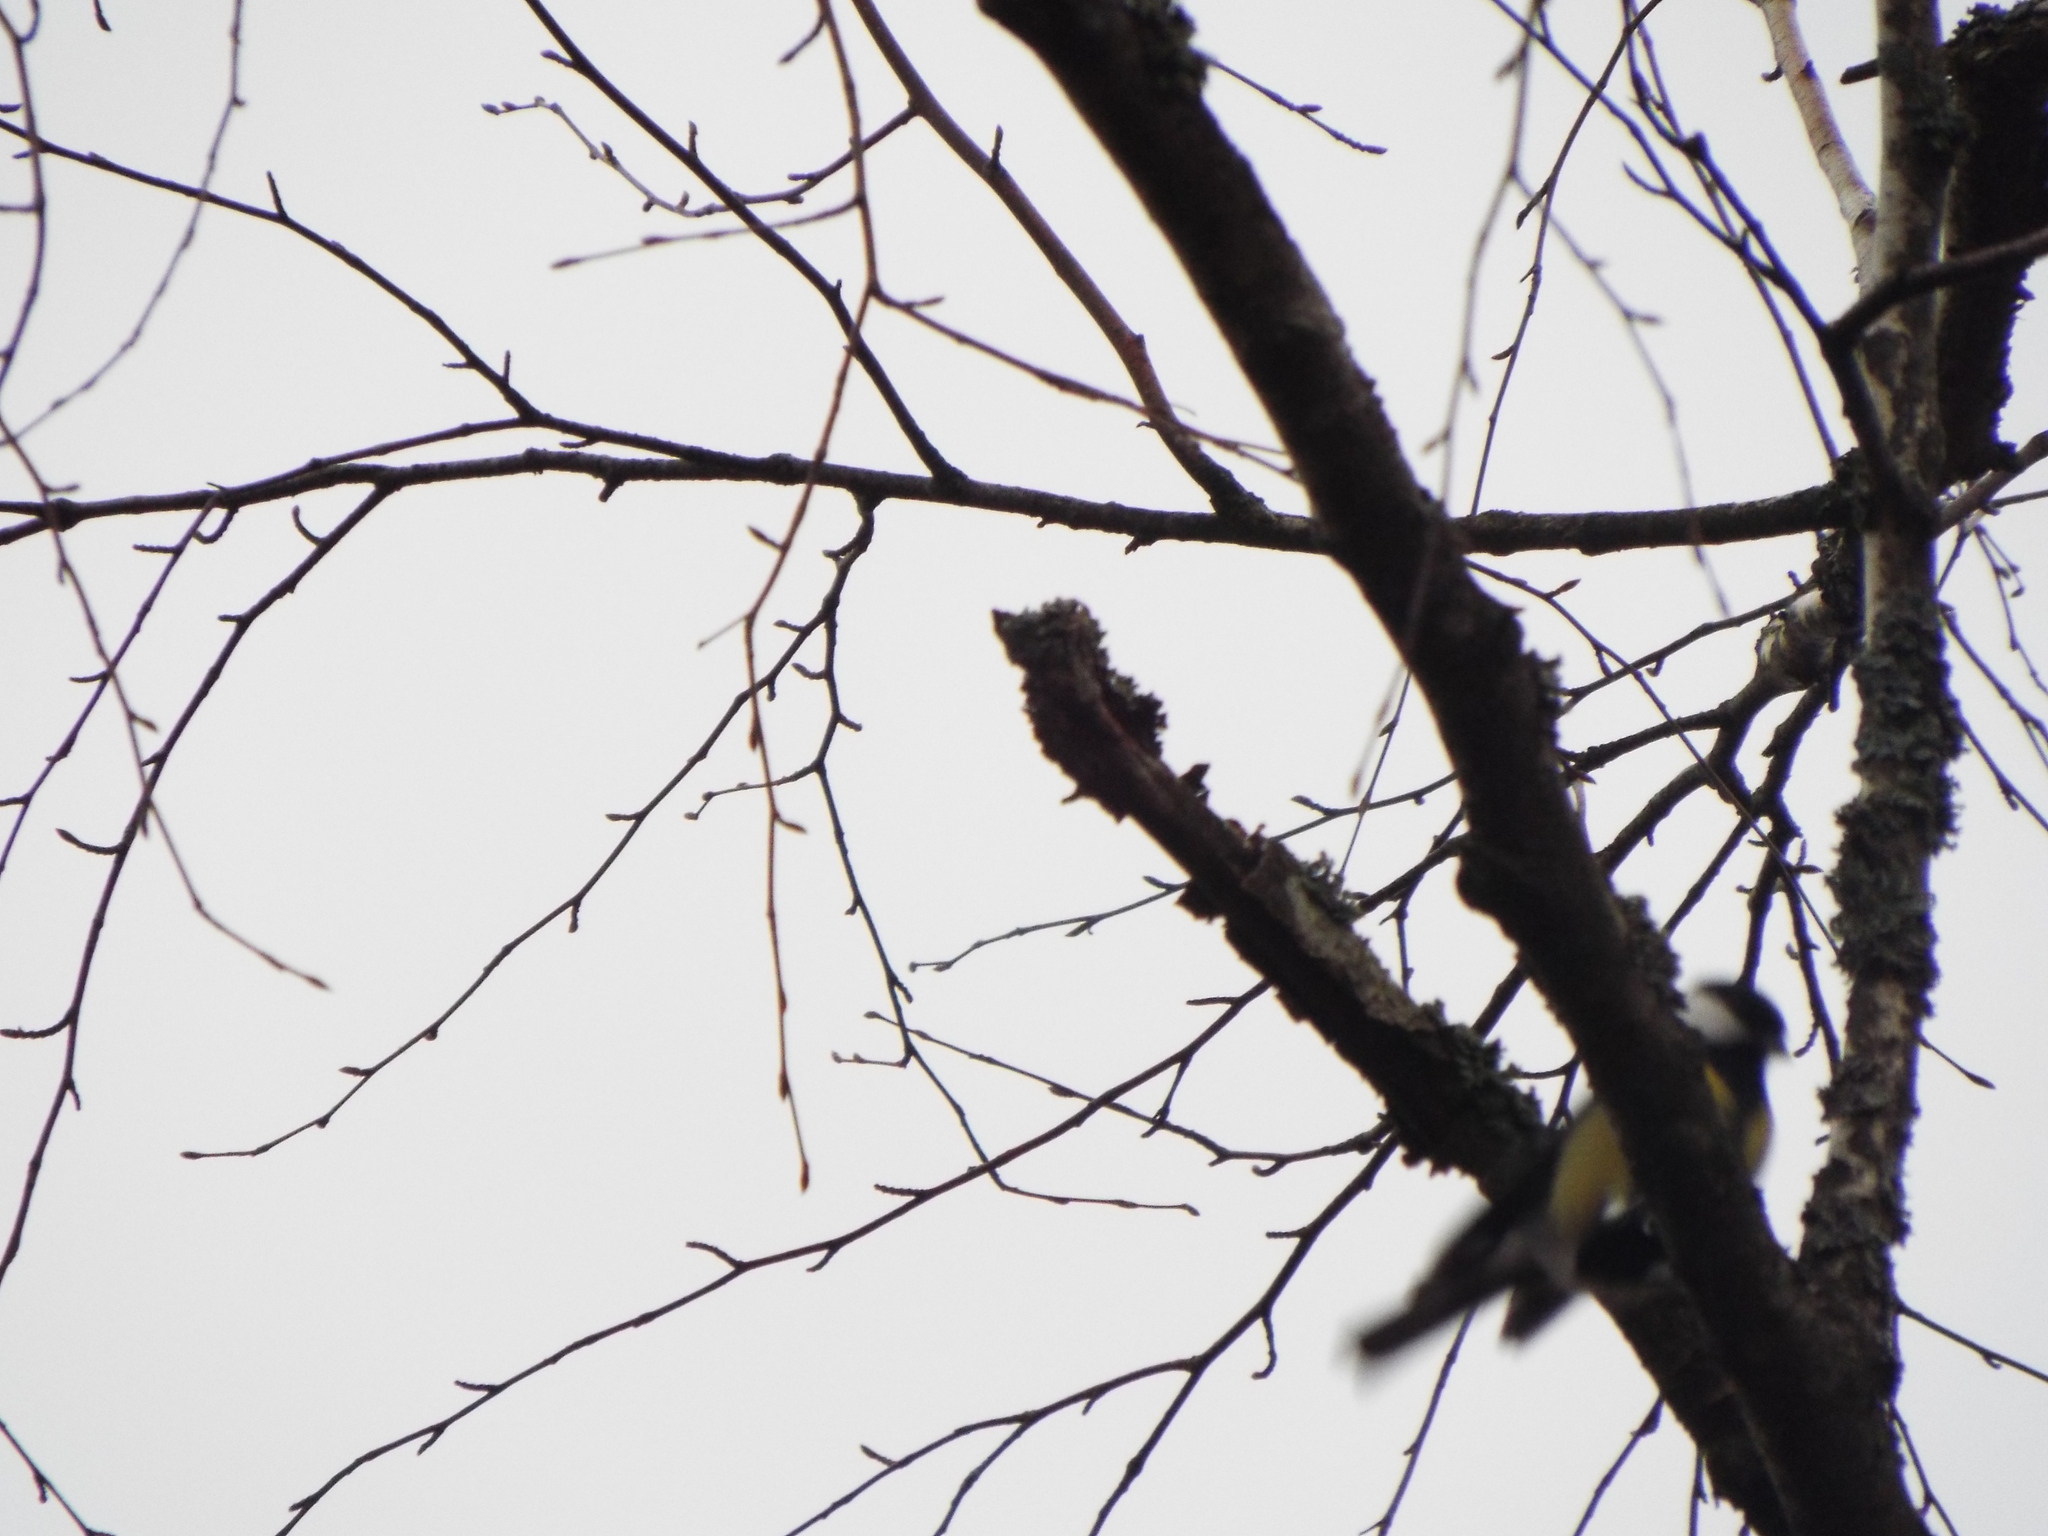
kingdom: Animalia
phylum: Chordata
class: Aves
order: Passeriformes
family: Paridae
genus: Parus
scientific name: Parus major
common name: Great tit
